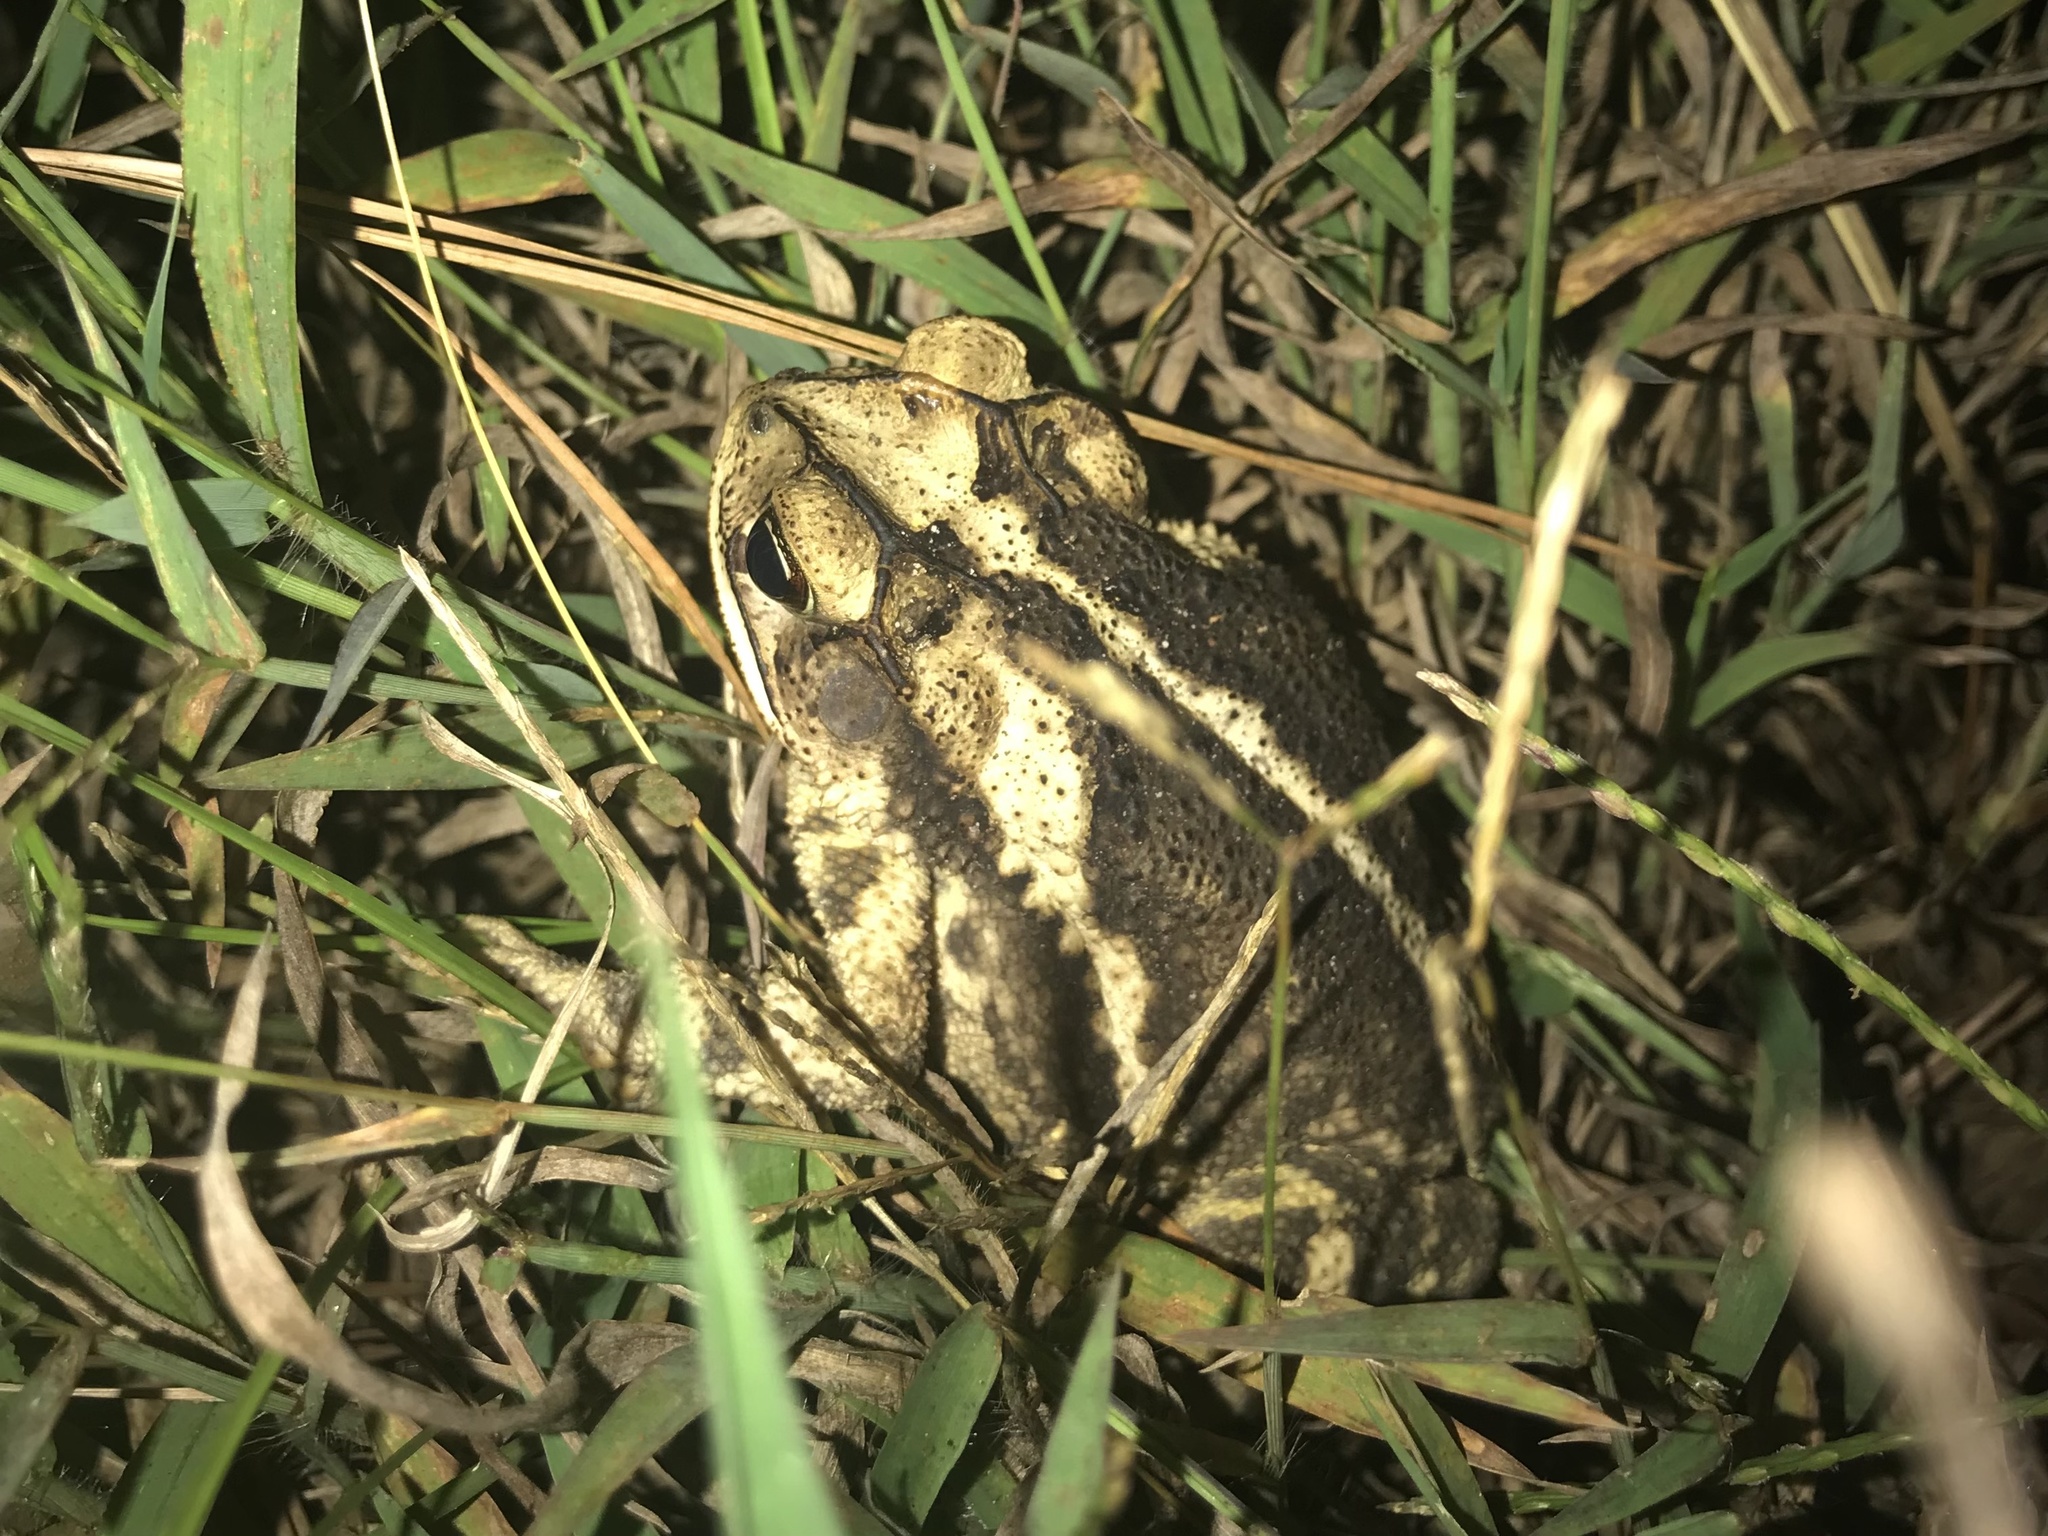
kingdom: Animalia
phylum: Chordata
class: Amphibia
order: Anura
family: Bufonidae
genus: Incilius
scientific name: Incilius nebulifer
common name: Gulf coast toad
